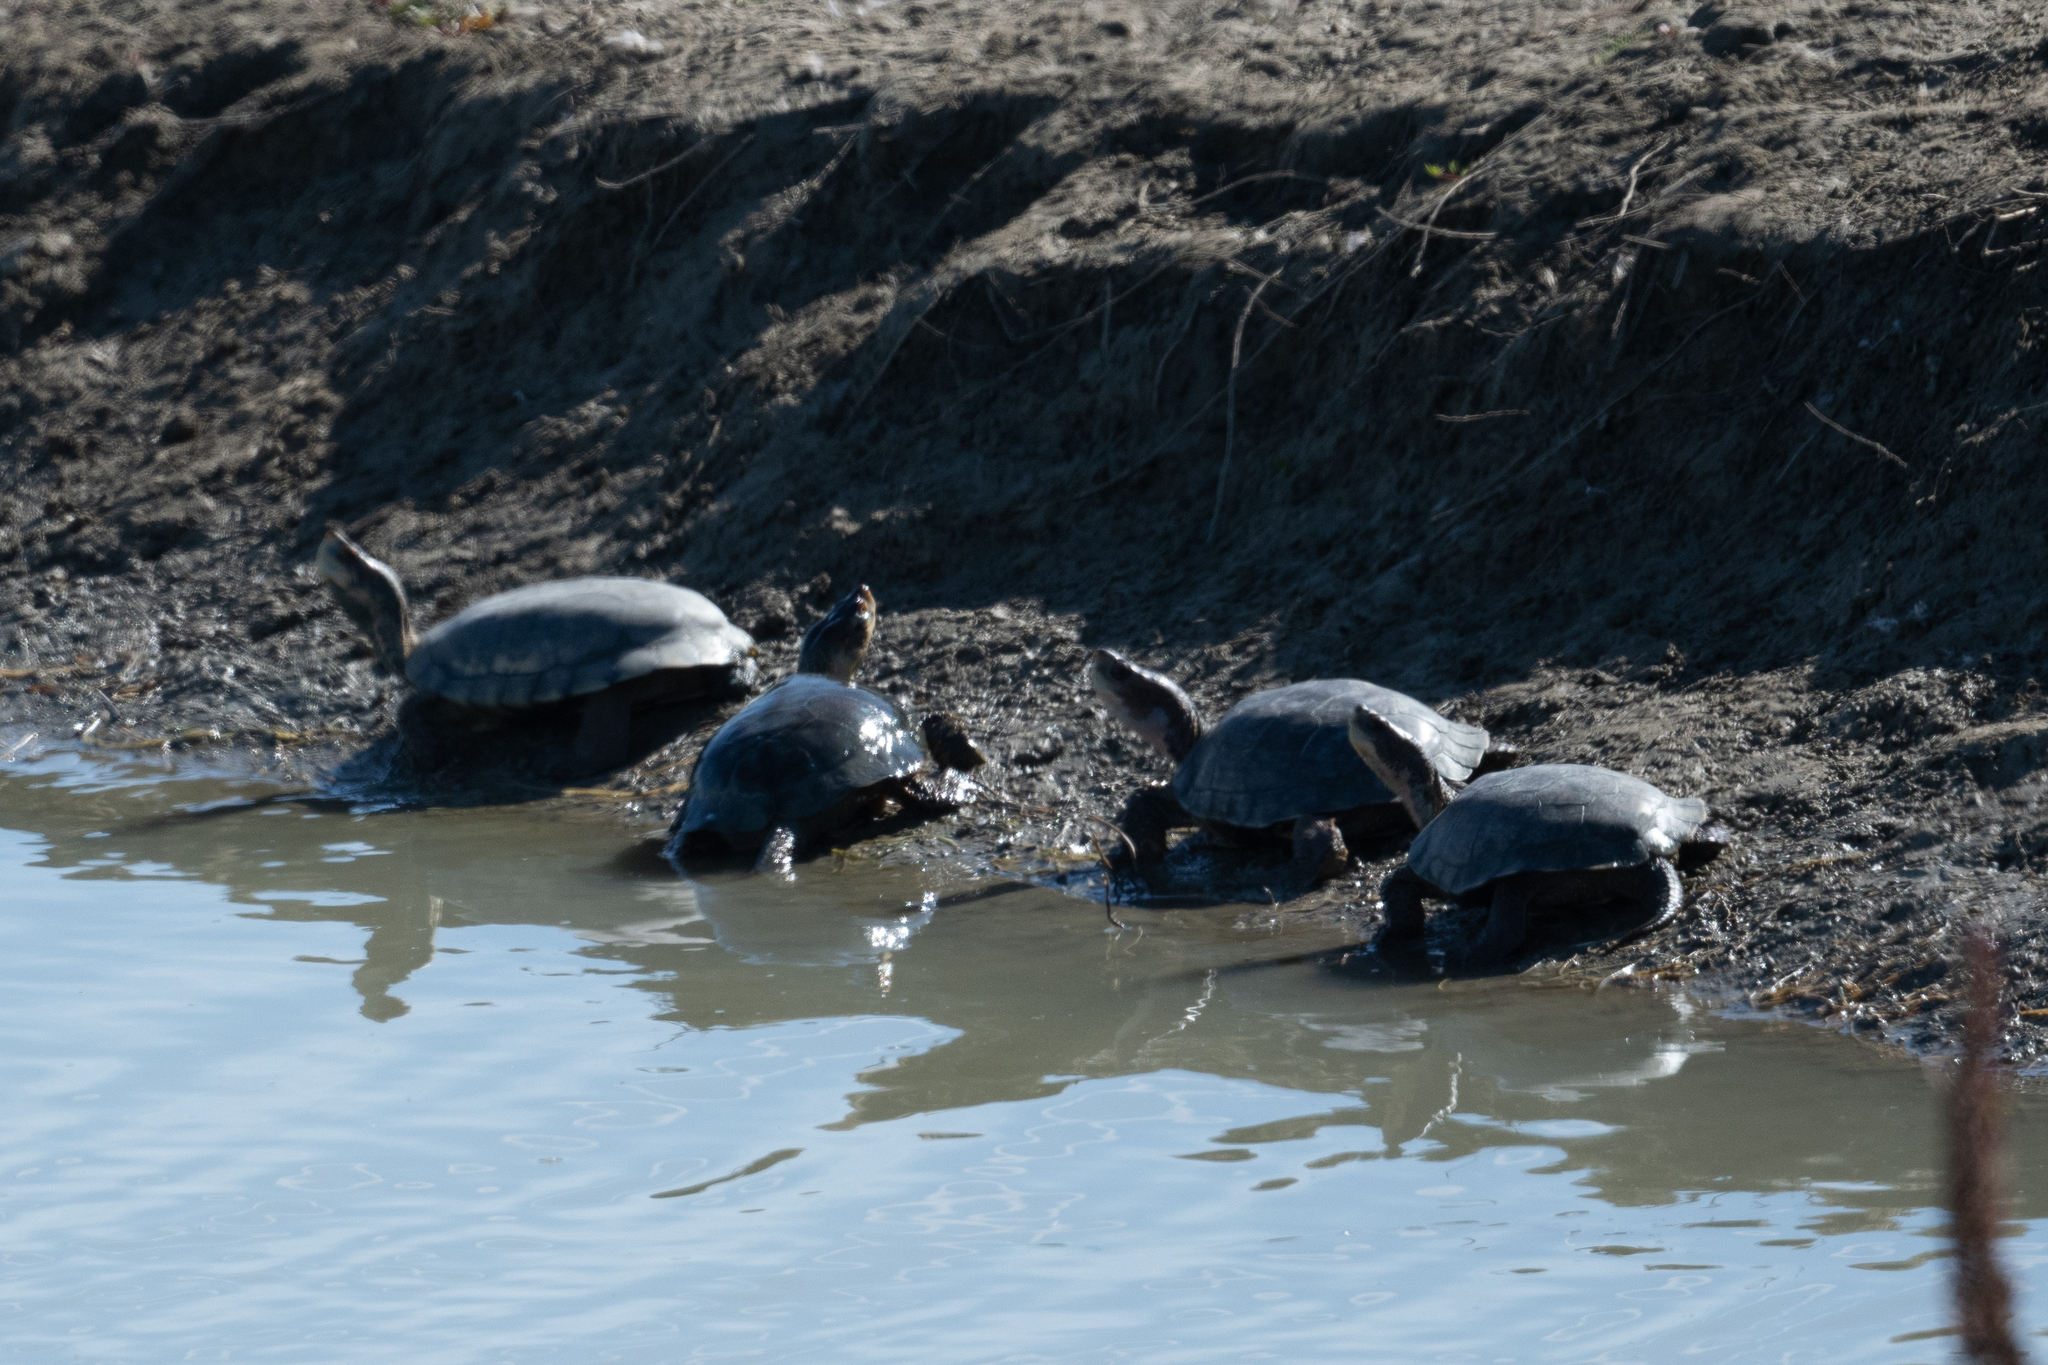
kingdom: Animalia
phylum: Chordata
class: Testudines
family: Emydidae
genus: Actinemys
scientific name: Actinemys marmorata
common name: Western pond turtle
